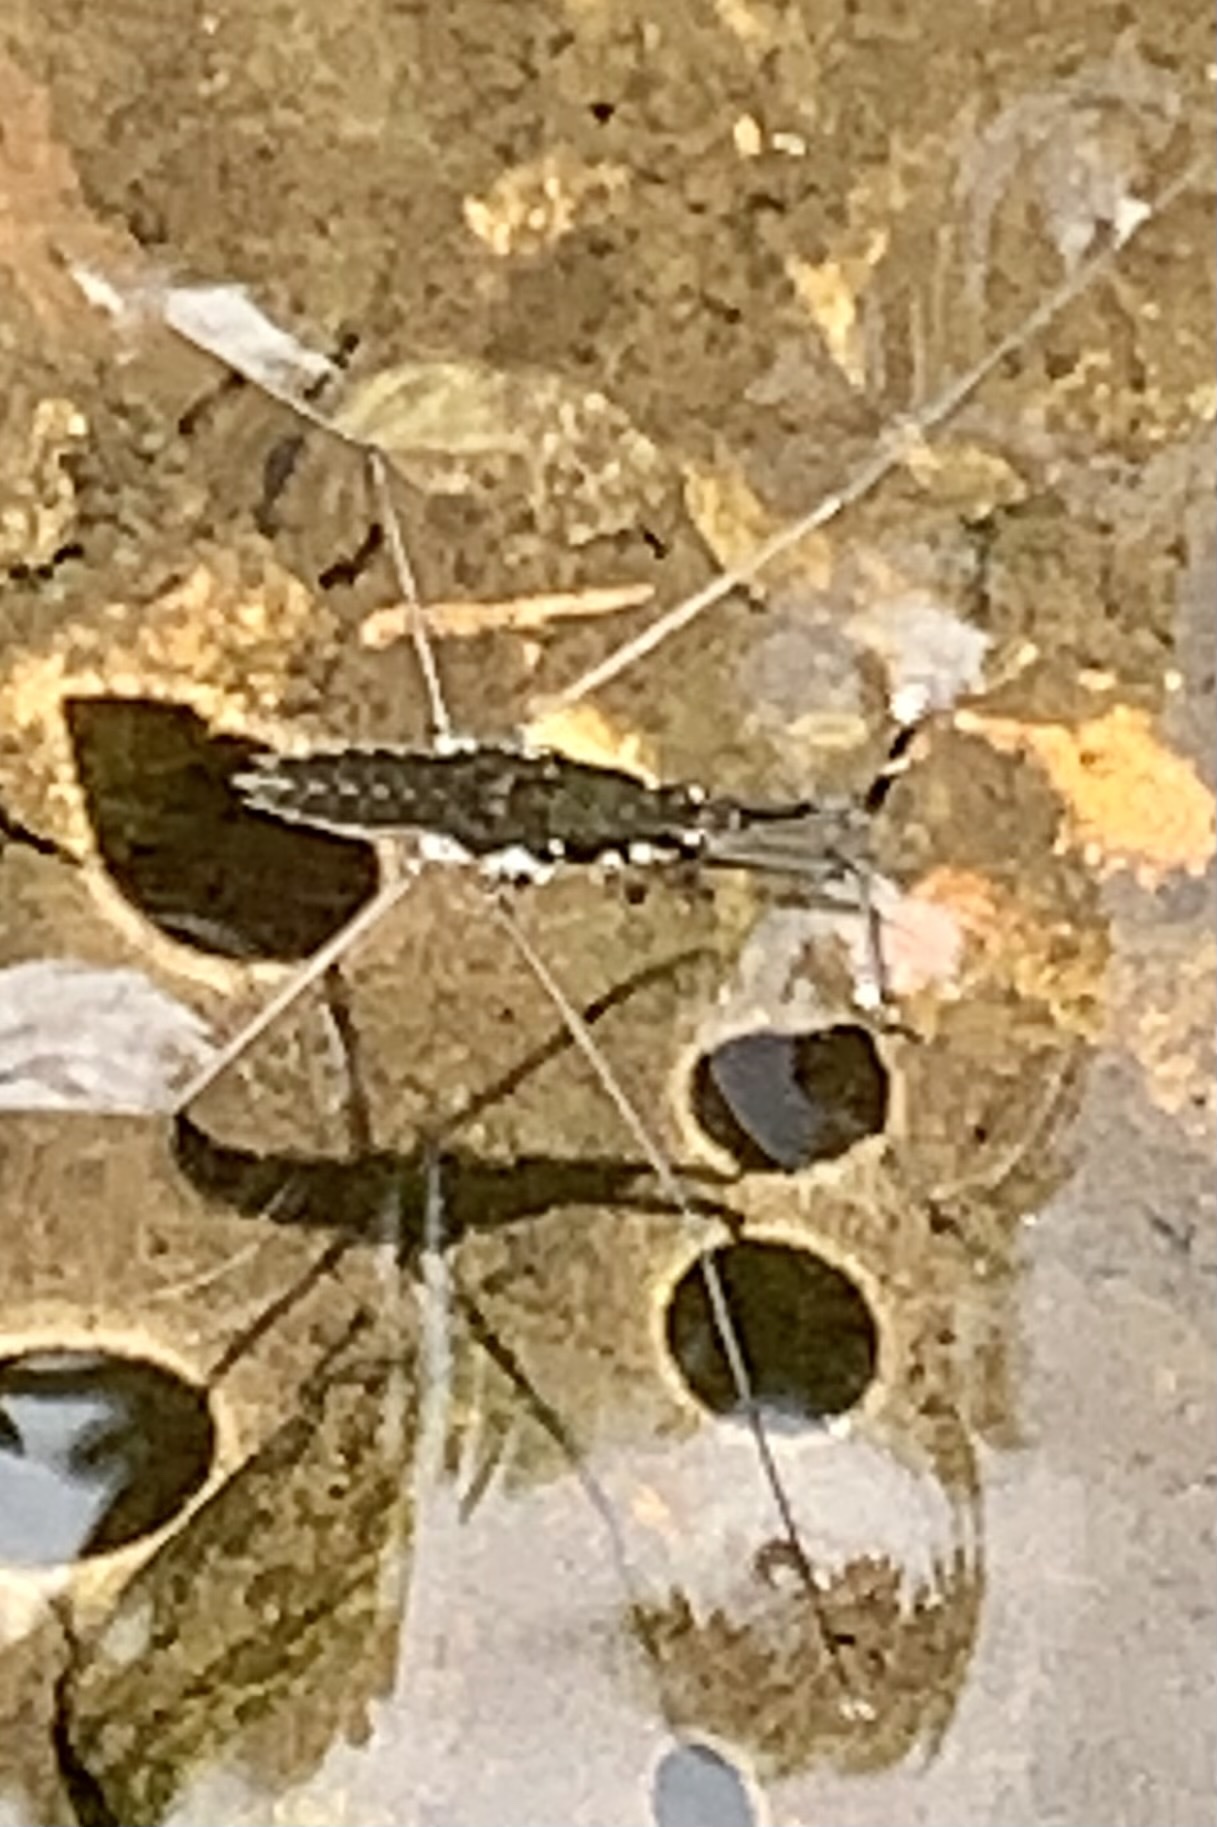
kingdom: Animalia
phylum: Arthropoda
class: Insecta
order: Hemiptera
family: Gerridae
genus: Aquarius
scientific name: Aquarius
